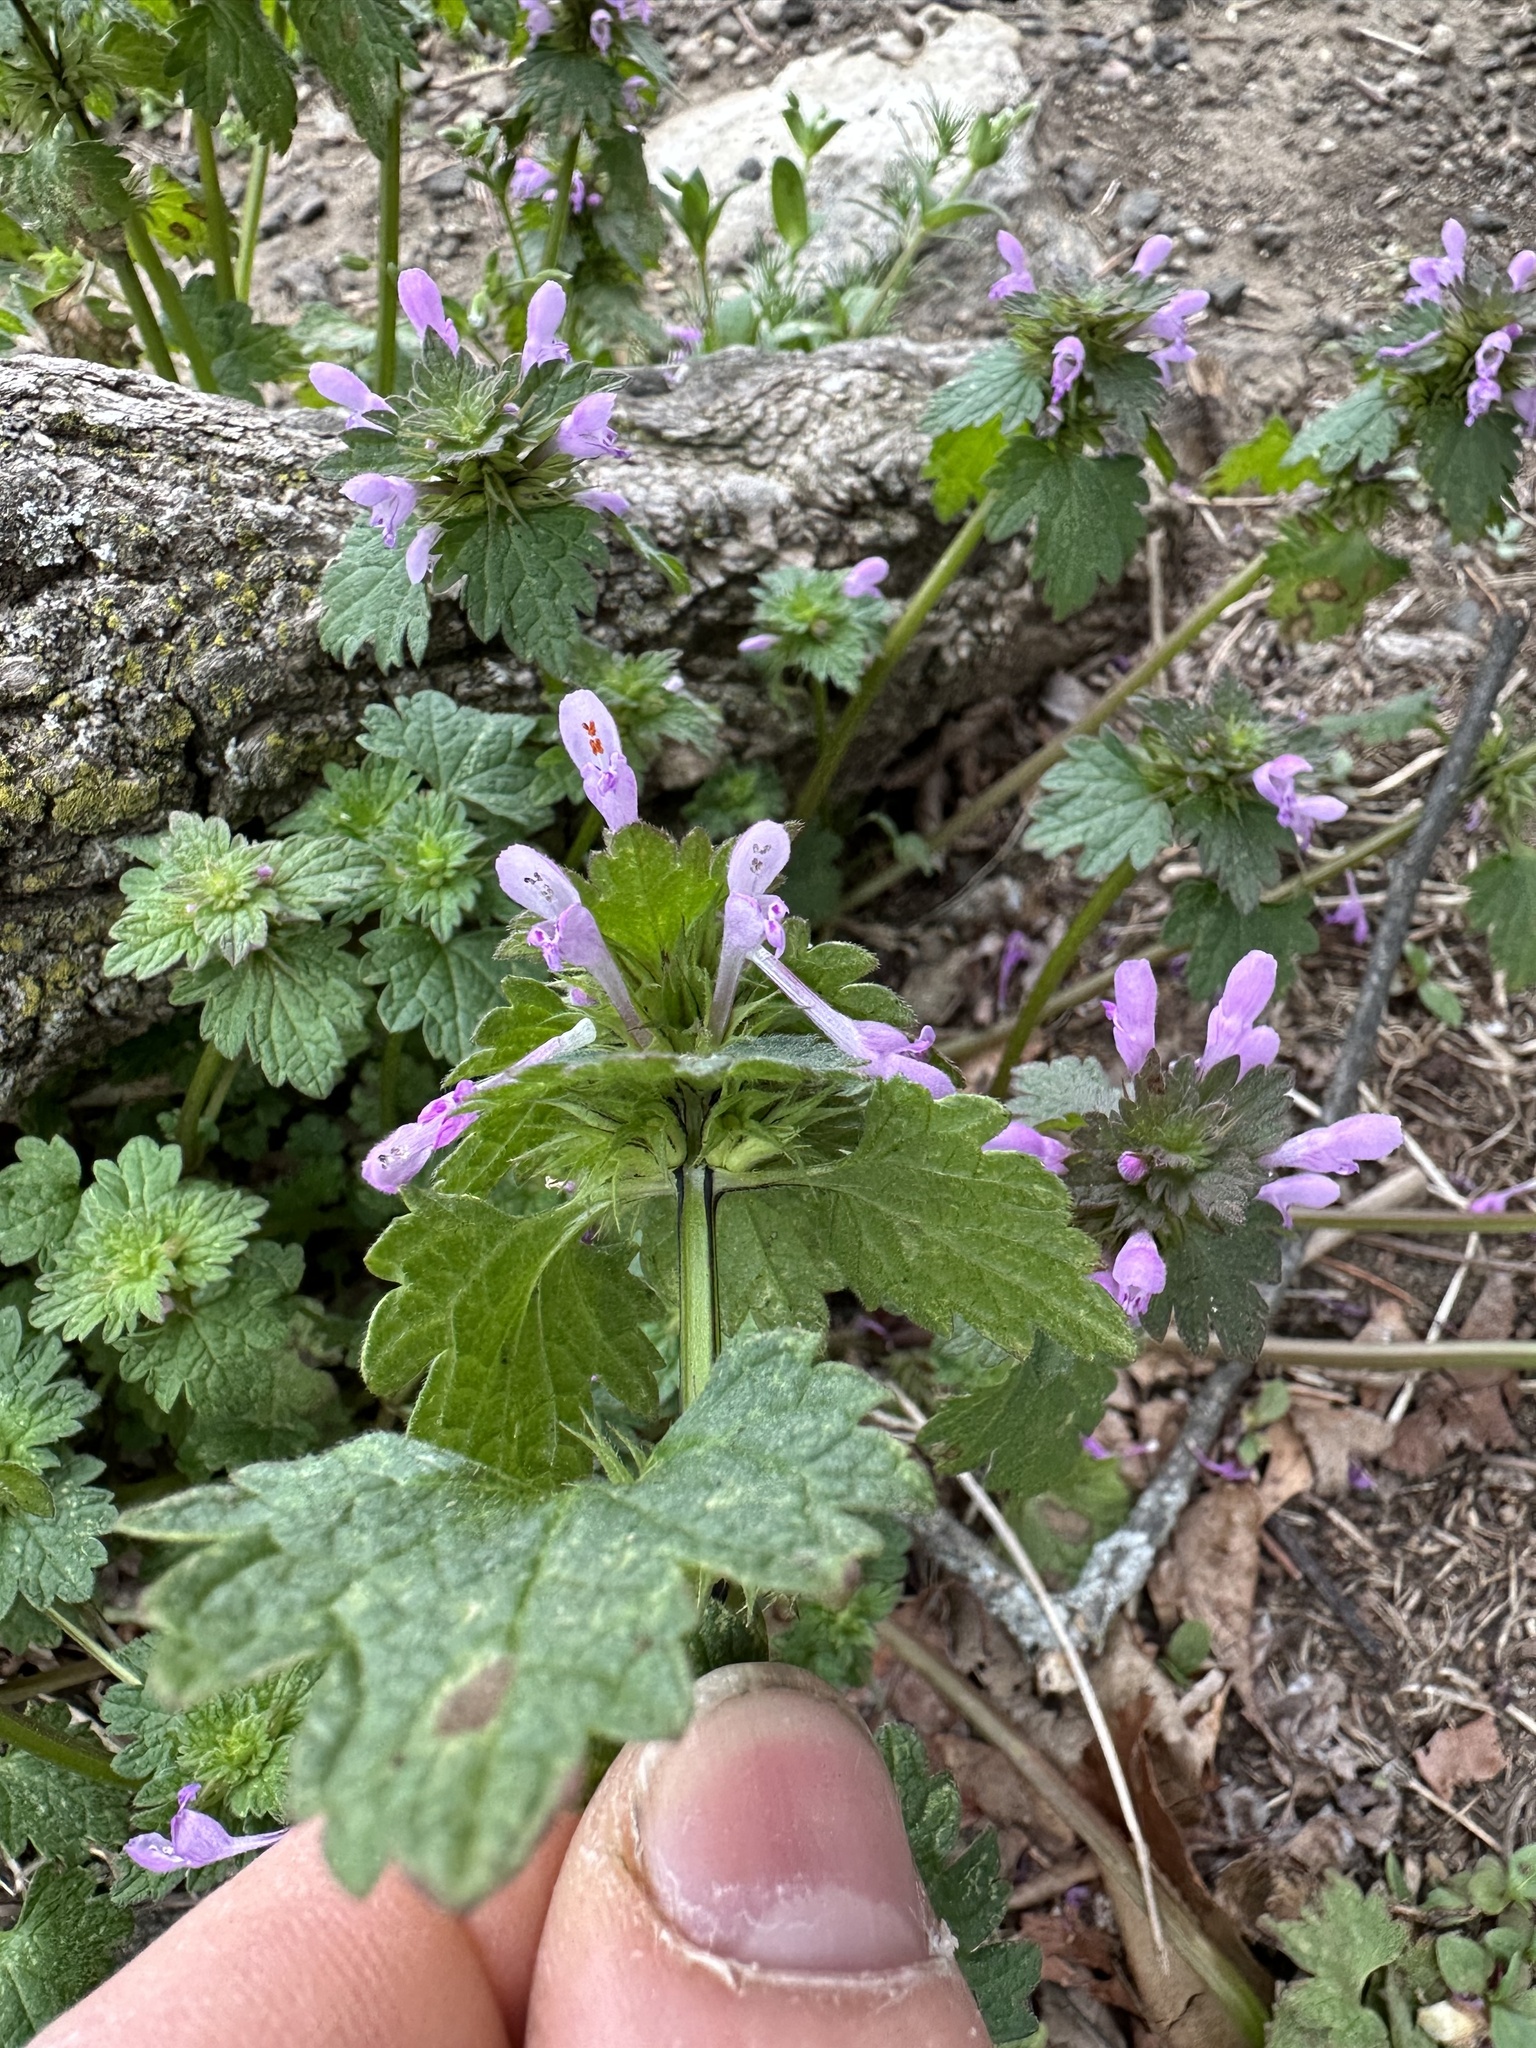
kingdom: Plantae
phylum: Tracheophyta
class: Magnoliopsida
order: Lamiales
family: Lamiaceae
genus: Lamium
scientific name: Lamium hybridum
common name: Cut-leaved dead-nettle
